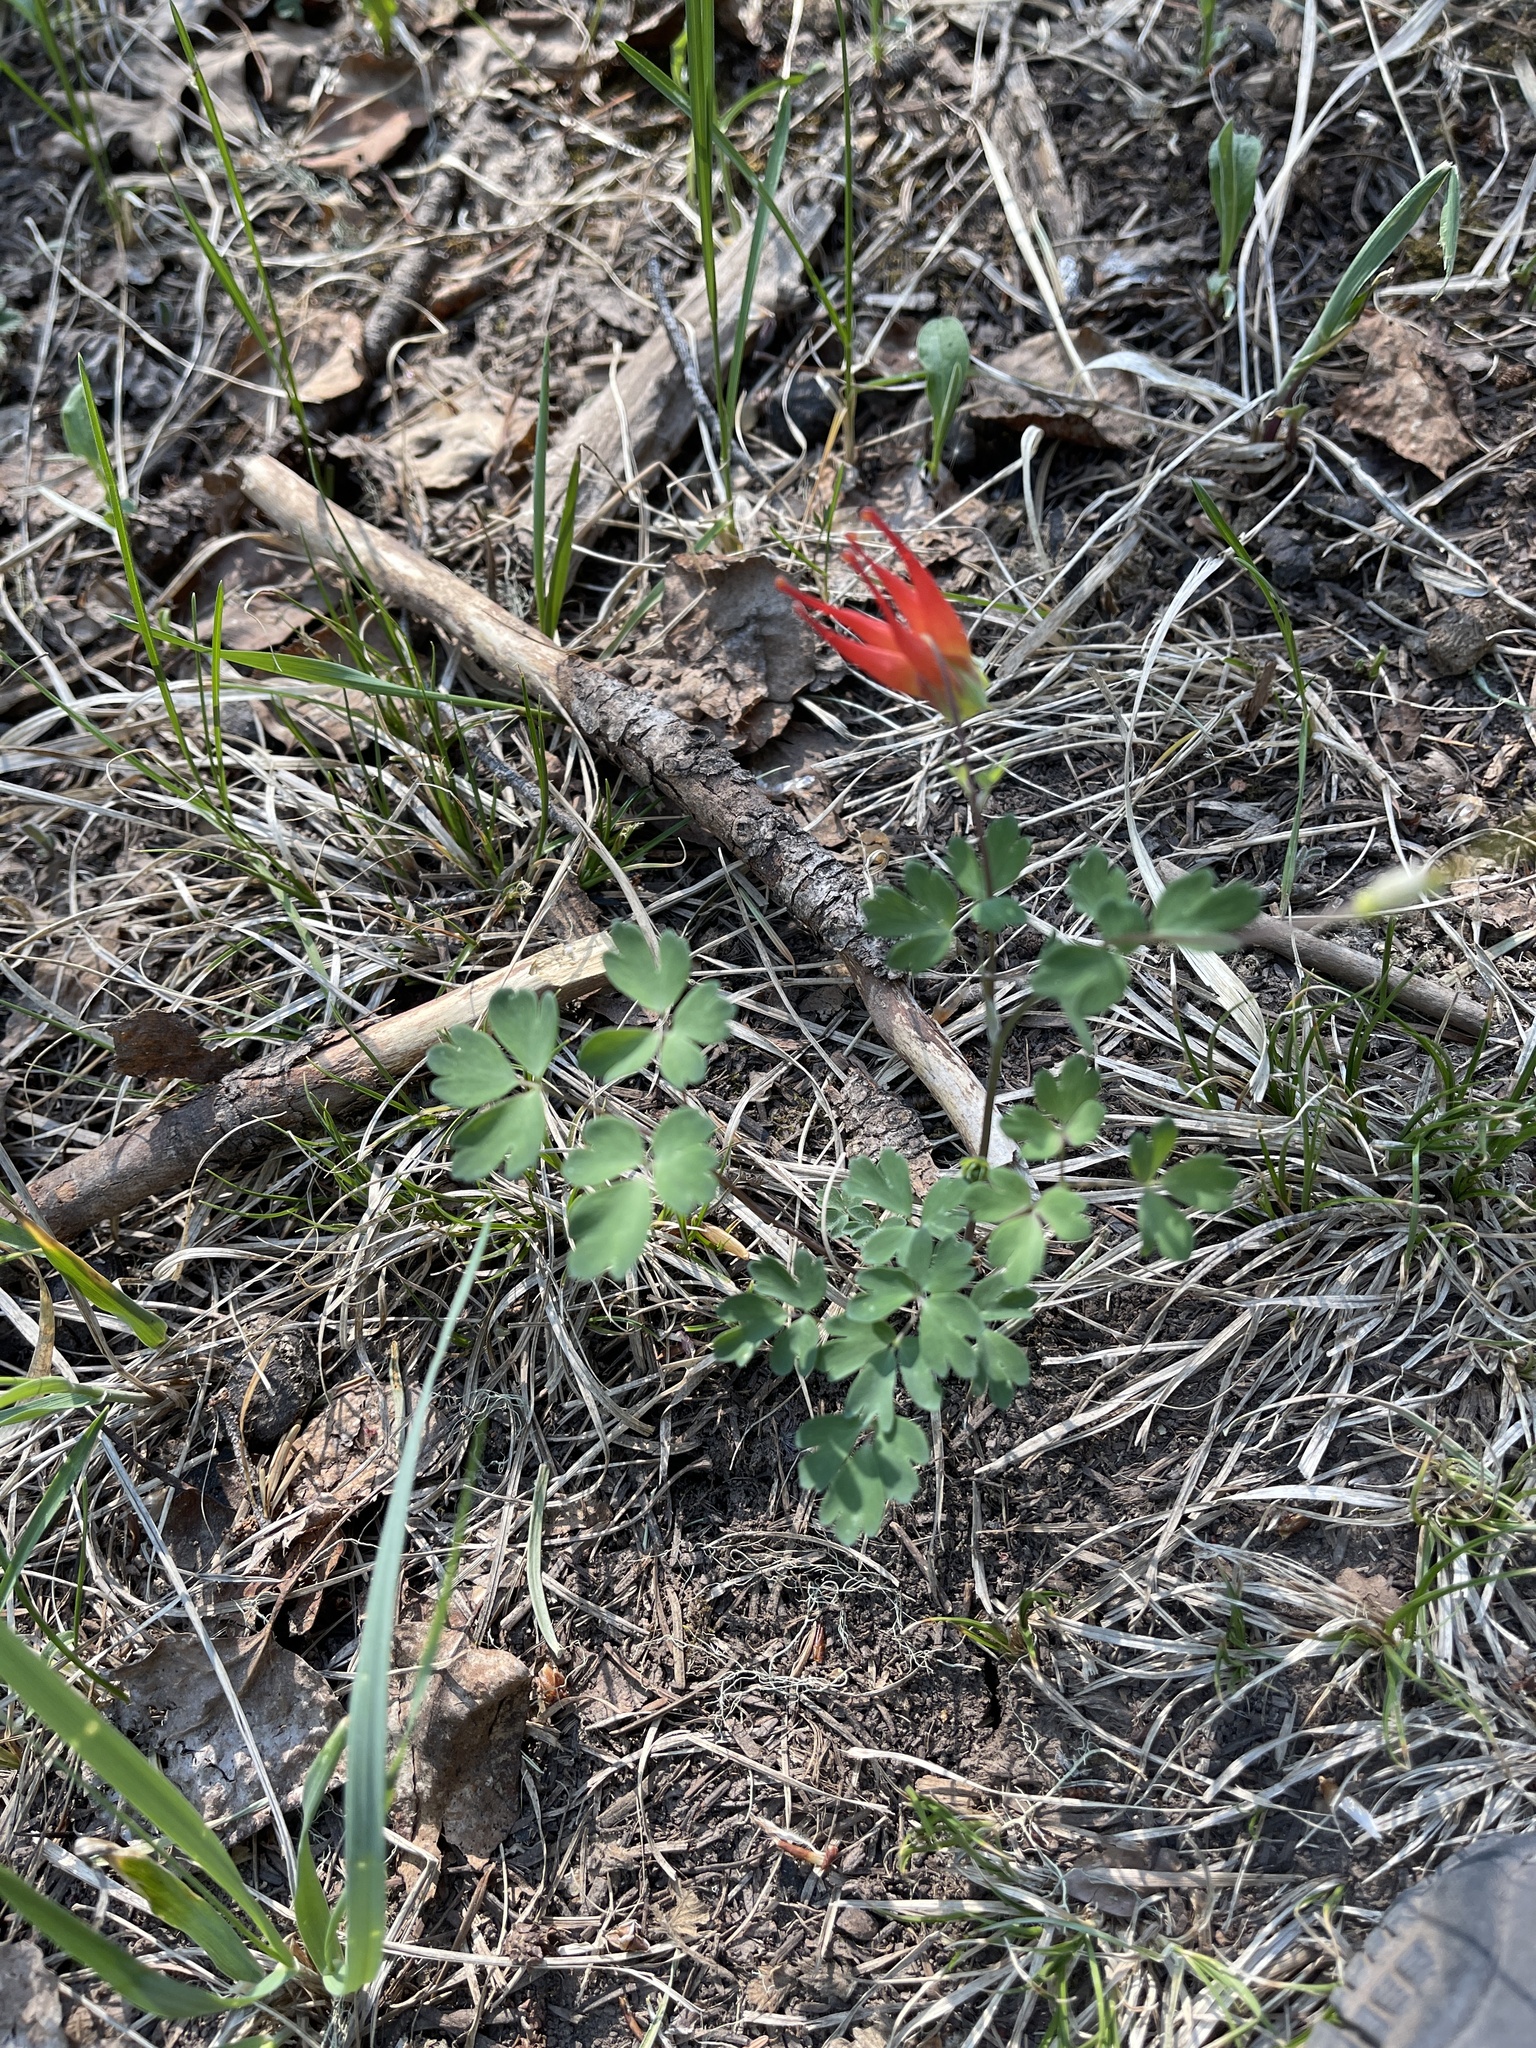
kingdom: Plantae
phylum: Tracheophyta
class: Magnoliopsida
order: Ranunculales
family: Ranunculaceae
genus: Aquilegia
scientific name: Aquilegia elegantula
